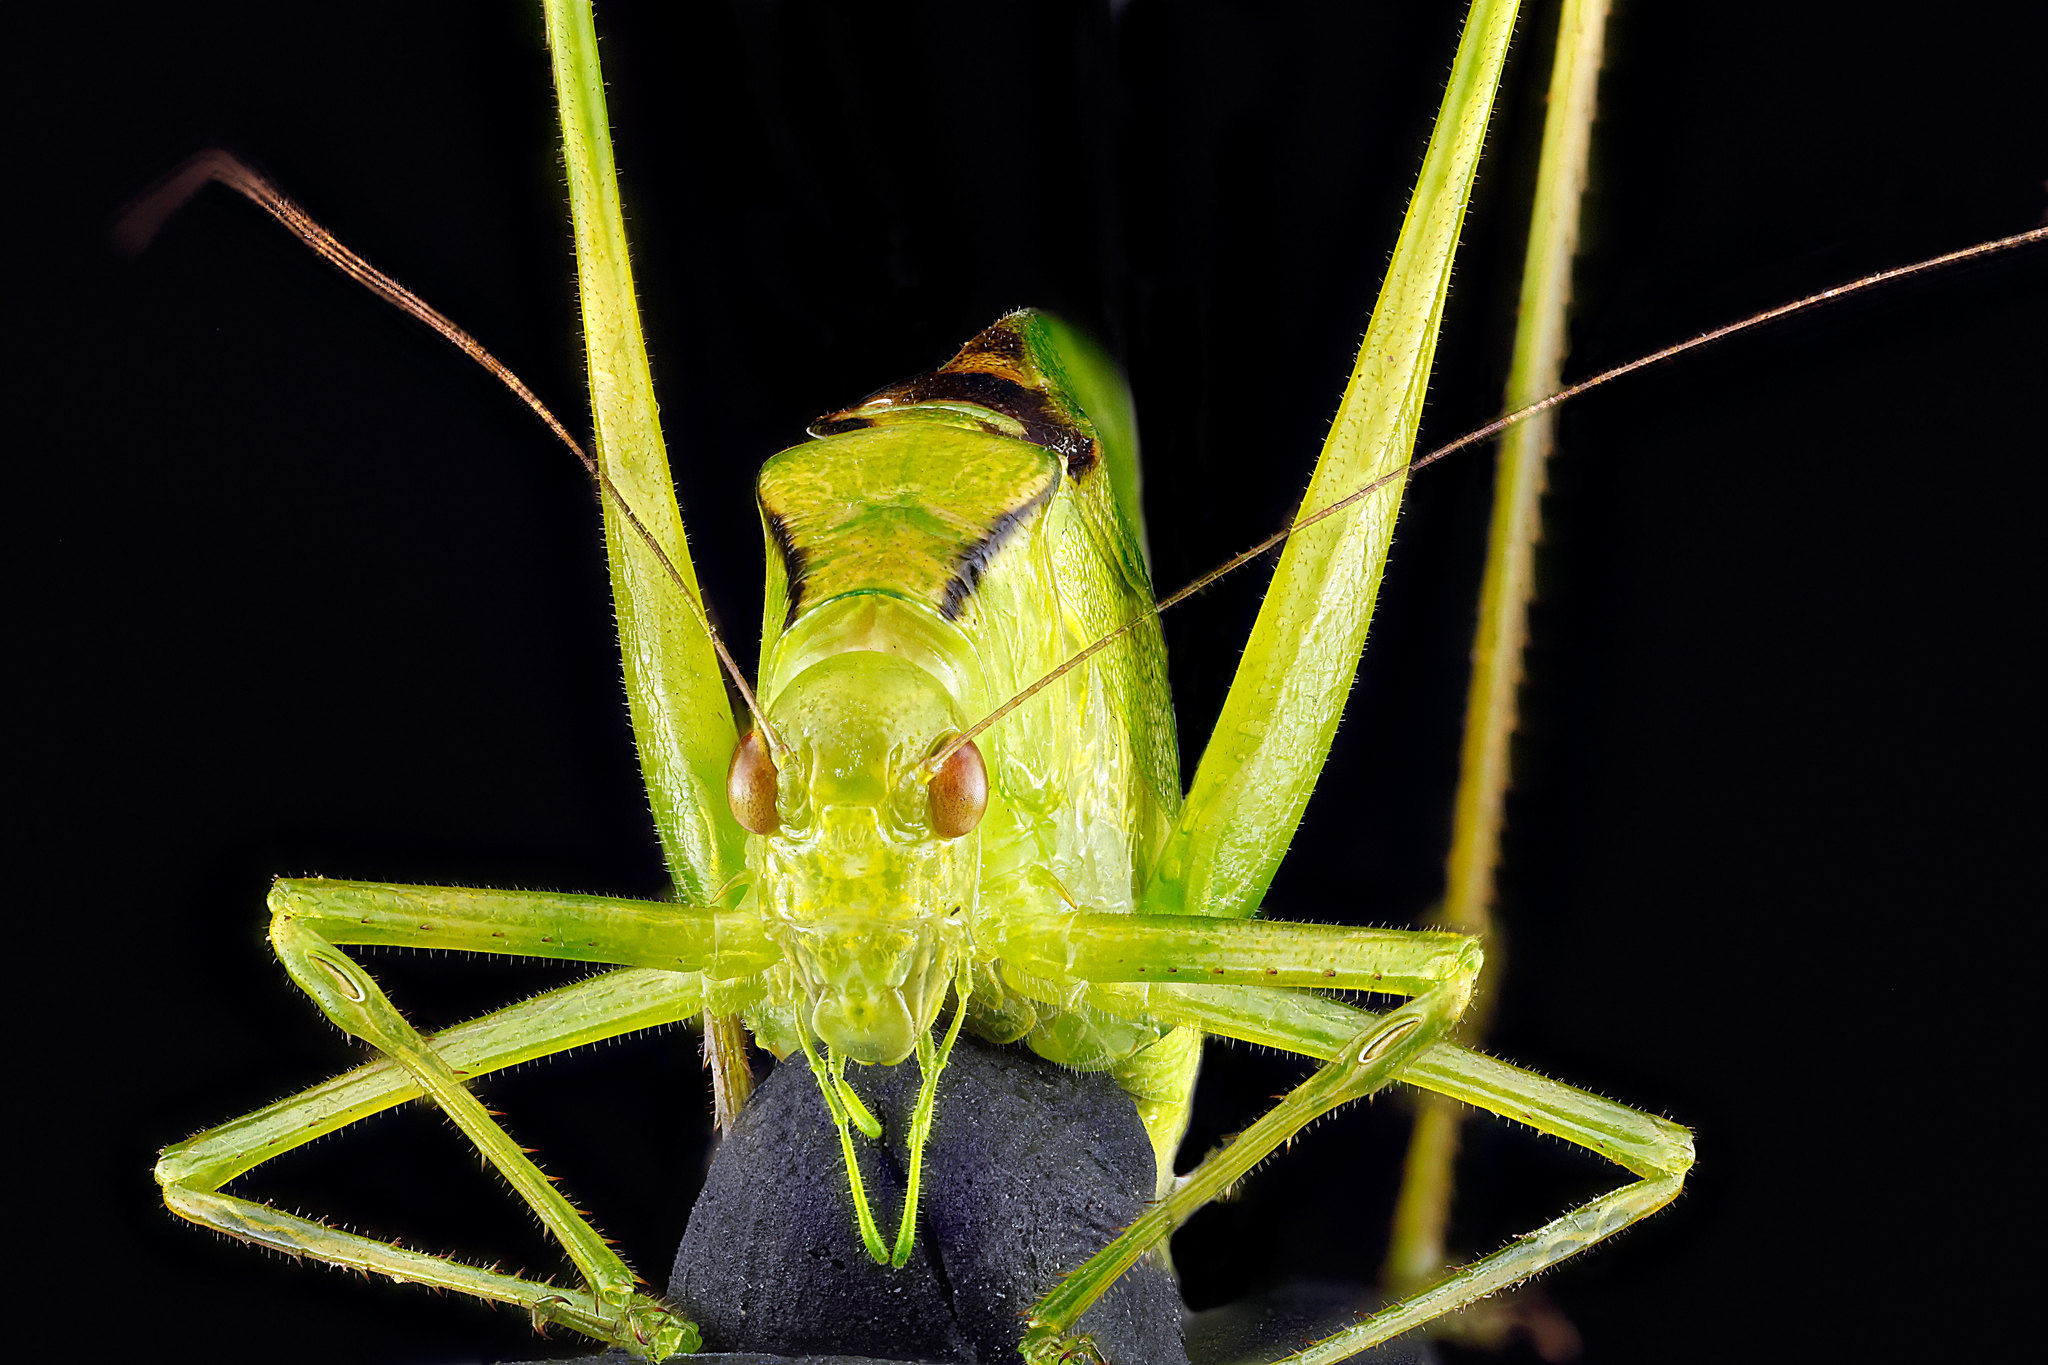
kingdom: Animalia
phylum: Arthropoda
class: Insecta
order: Orthoptera
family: Tettigoniidae
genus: Amblycorypha
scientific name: Amblycorypha oblongifolia
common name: Oblong-winged katydid
